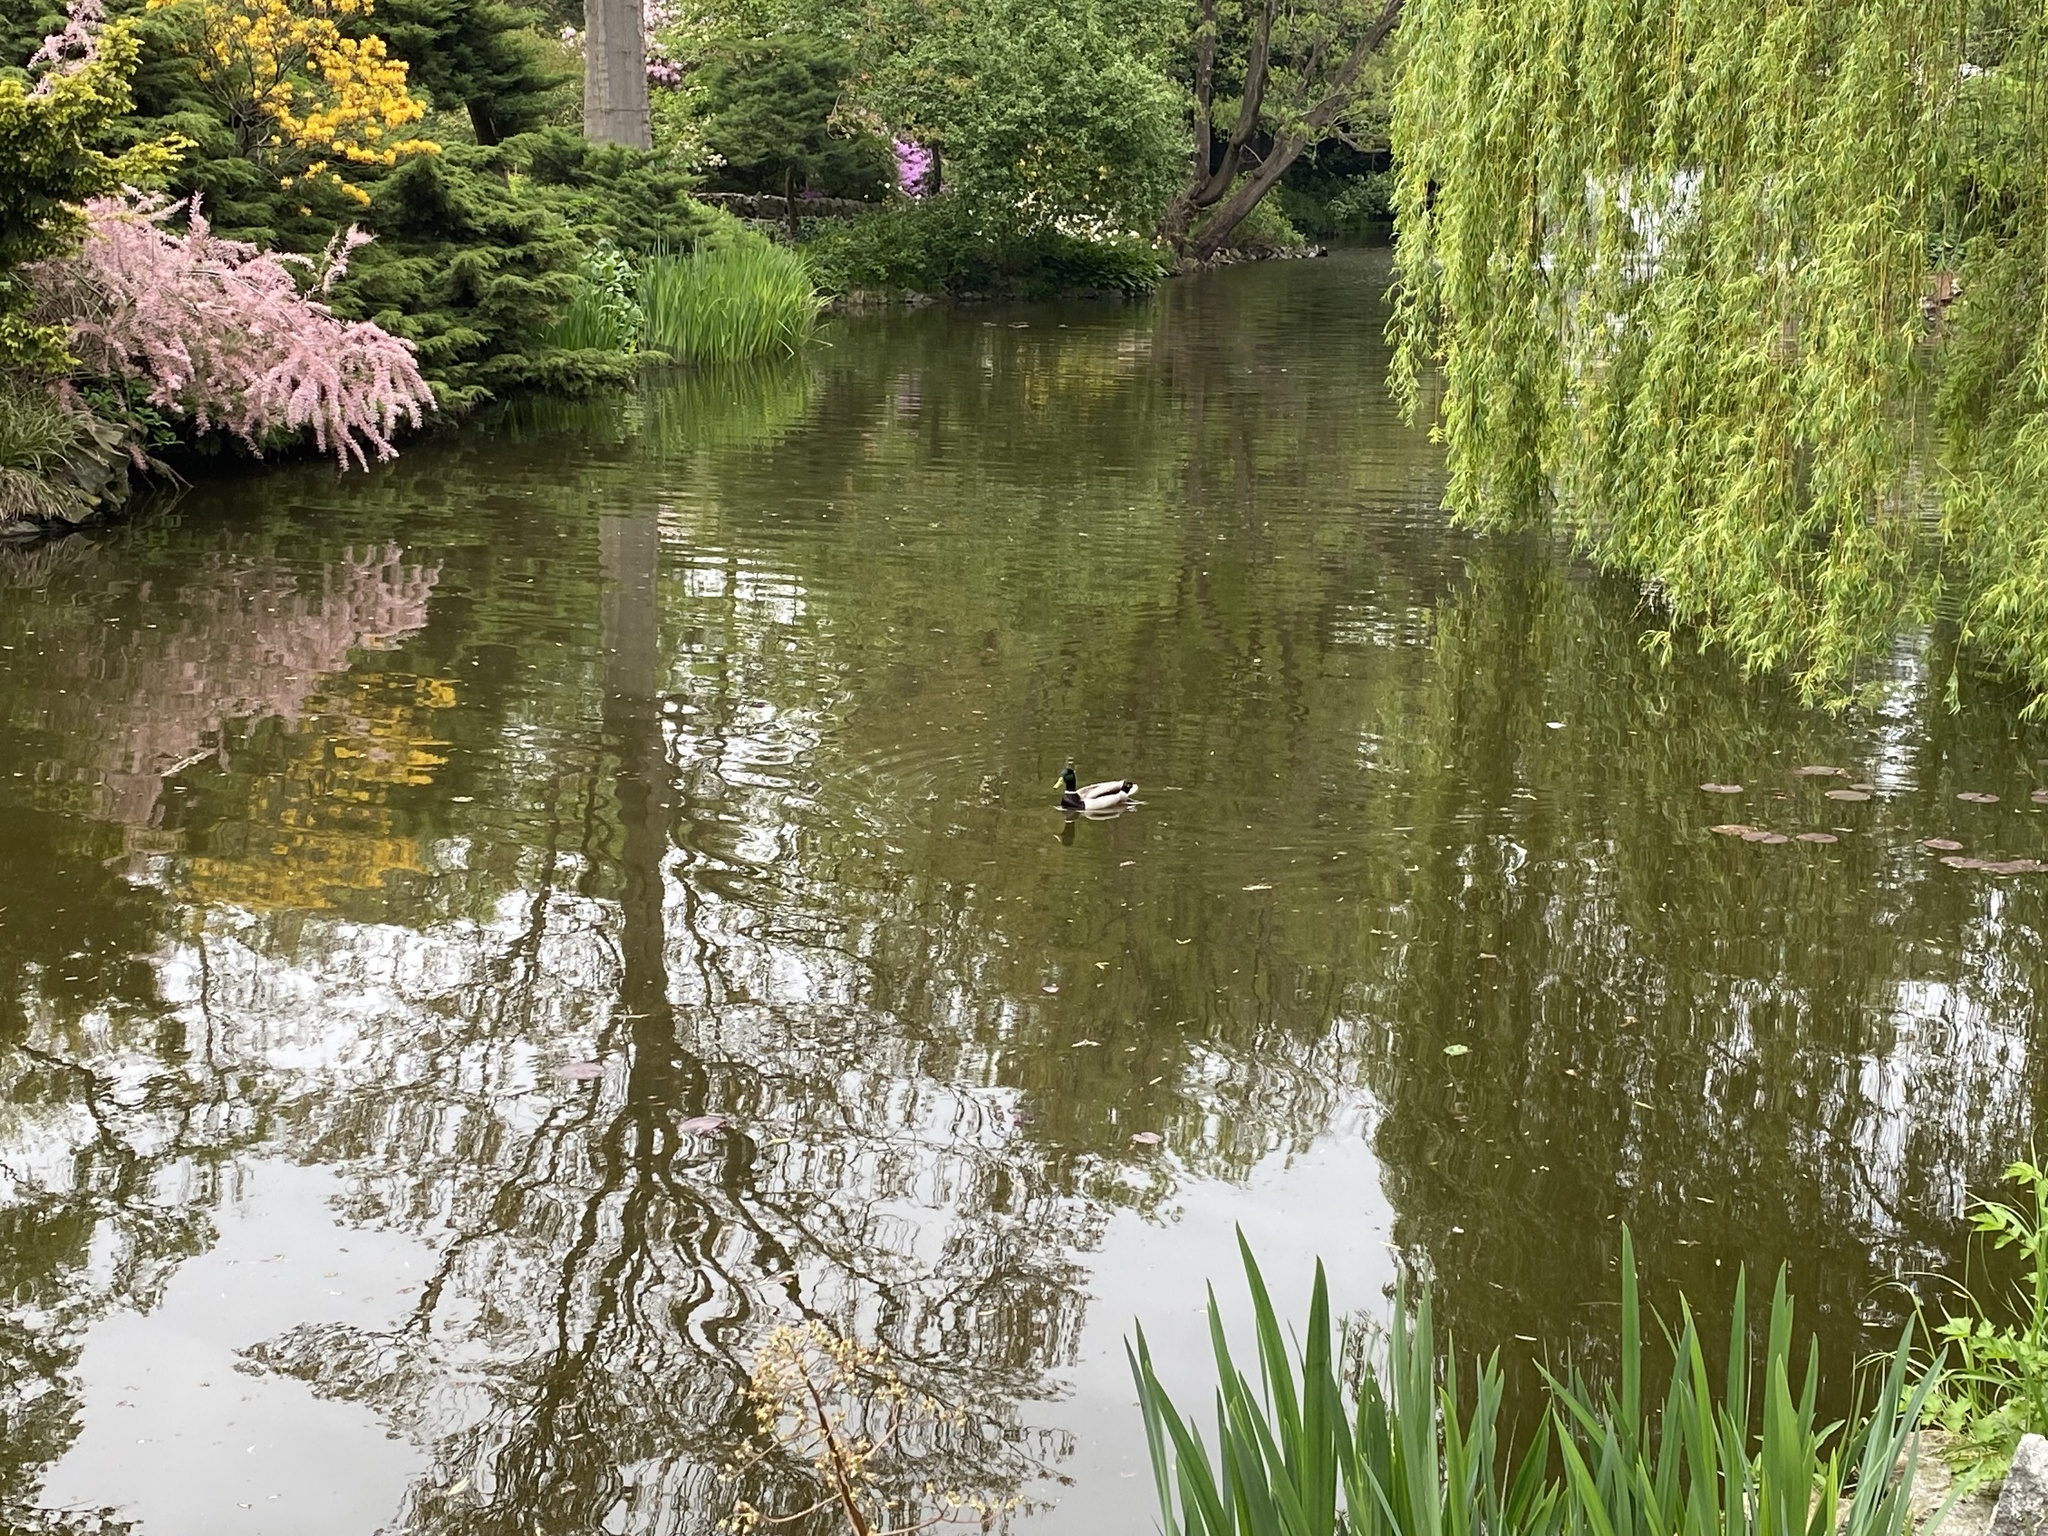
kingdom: Animalia
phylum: Chordata
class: Aves
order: Anseriformes
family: Anatidae
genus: Anas
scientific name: Anas platyrhynchos
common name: Mallard
